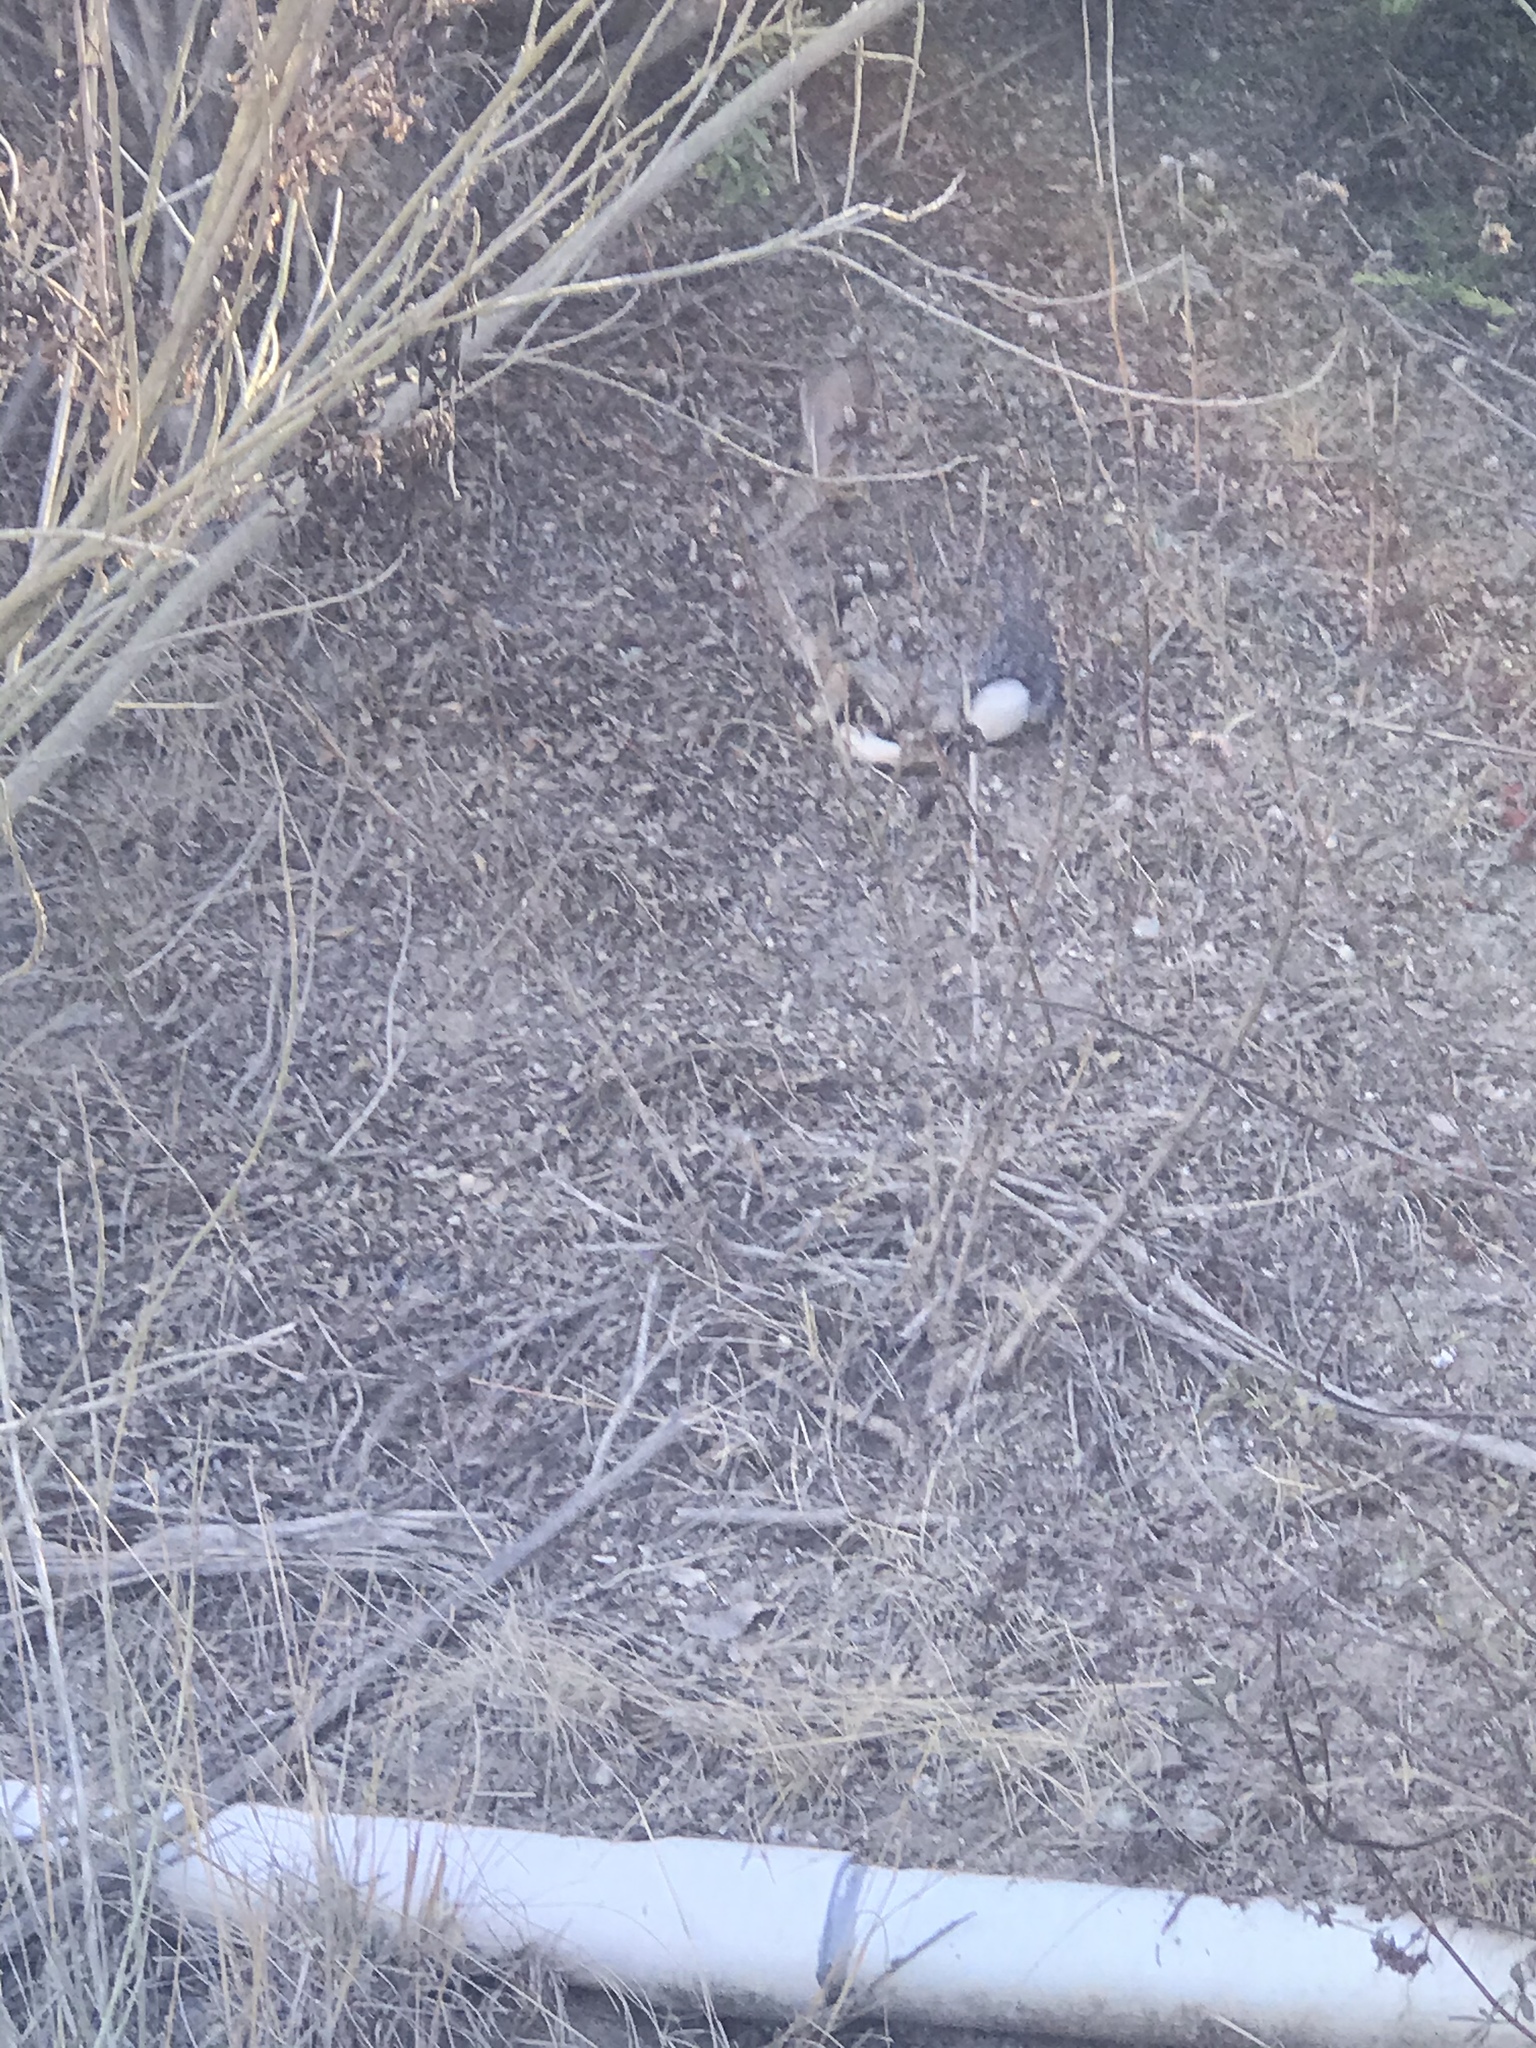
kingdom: Animalia
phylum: Chordata
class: Mammalia
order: Lagomorpha
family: Leporidae
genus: Sylvilagus
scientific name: Sylvilagus audubonii
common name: Desert cottontail
